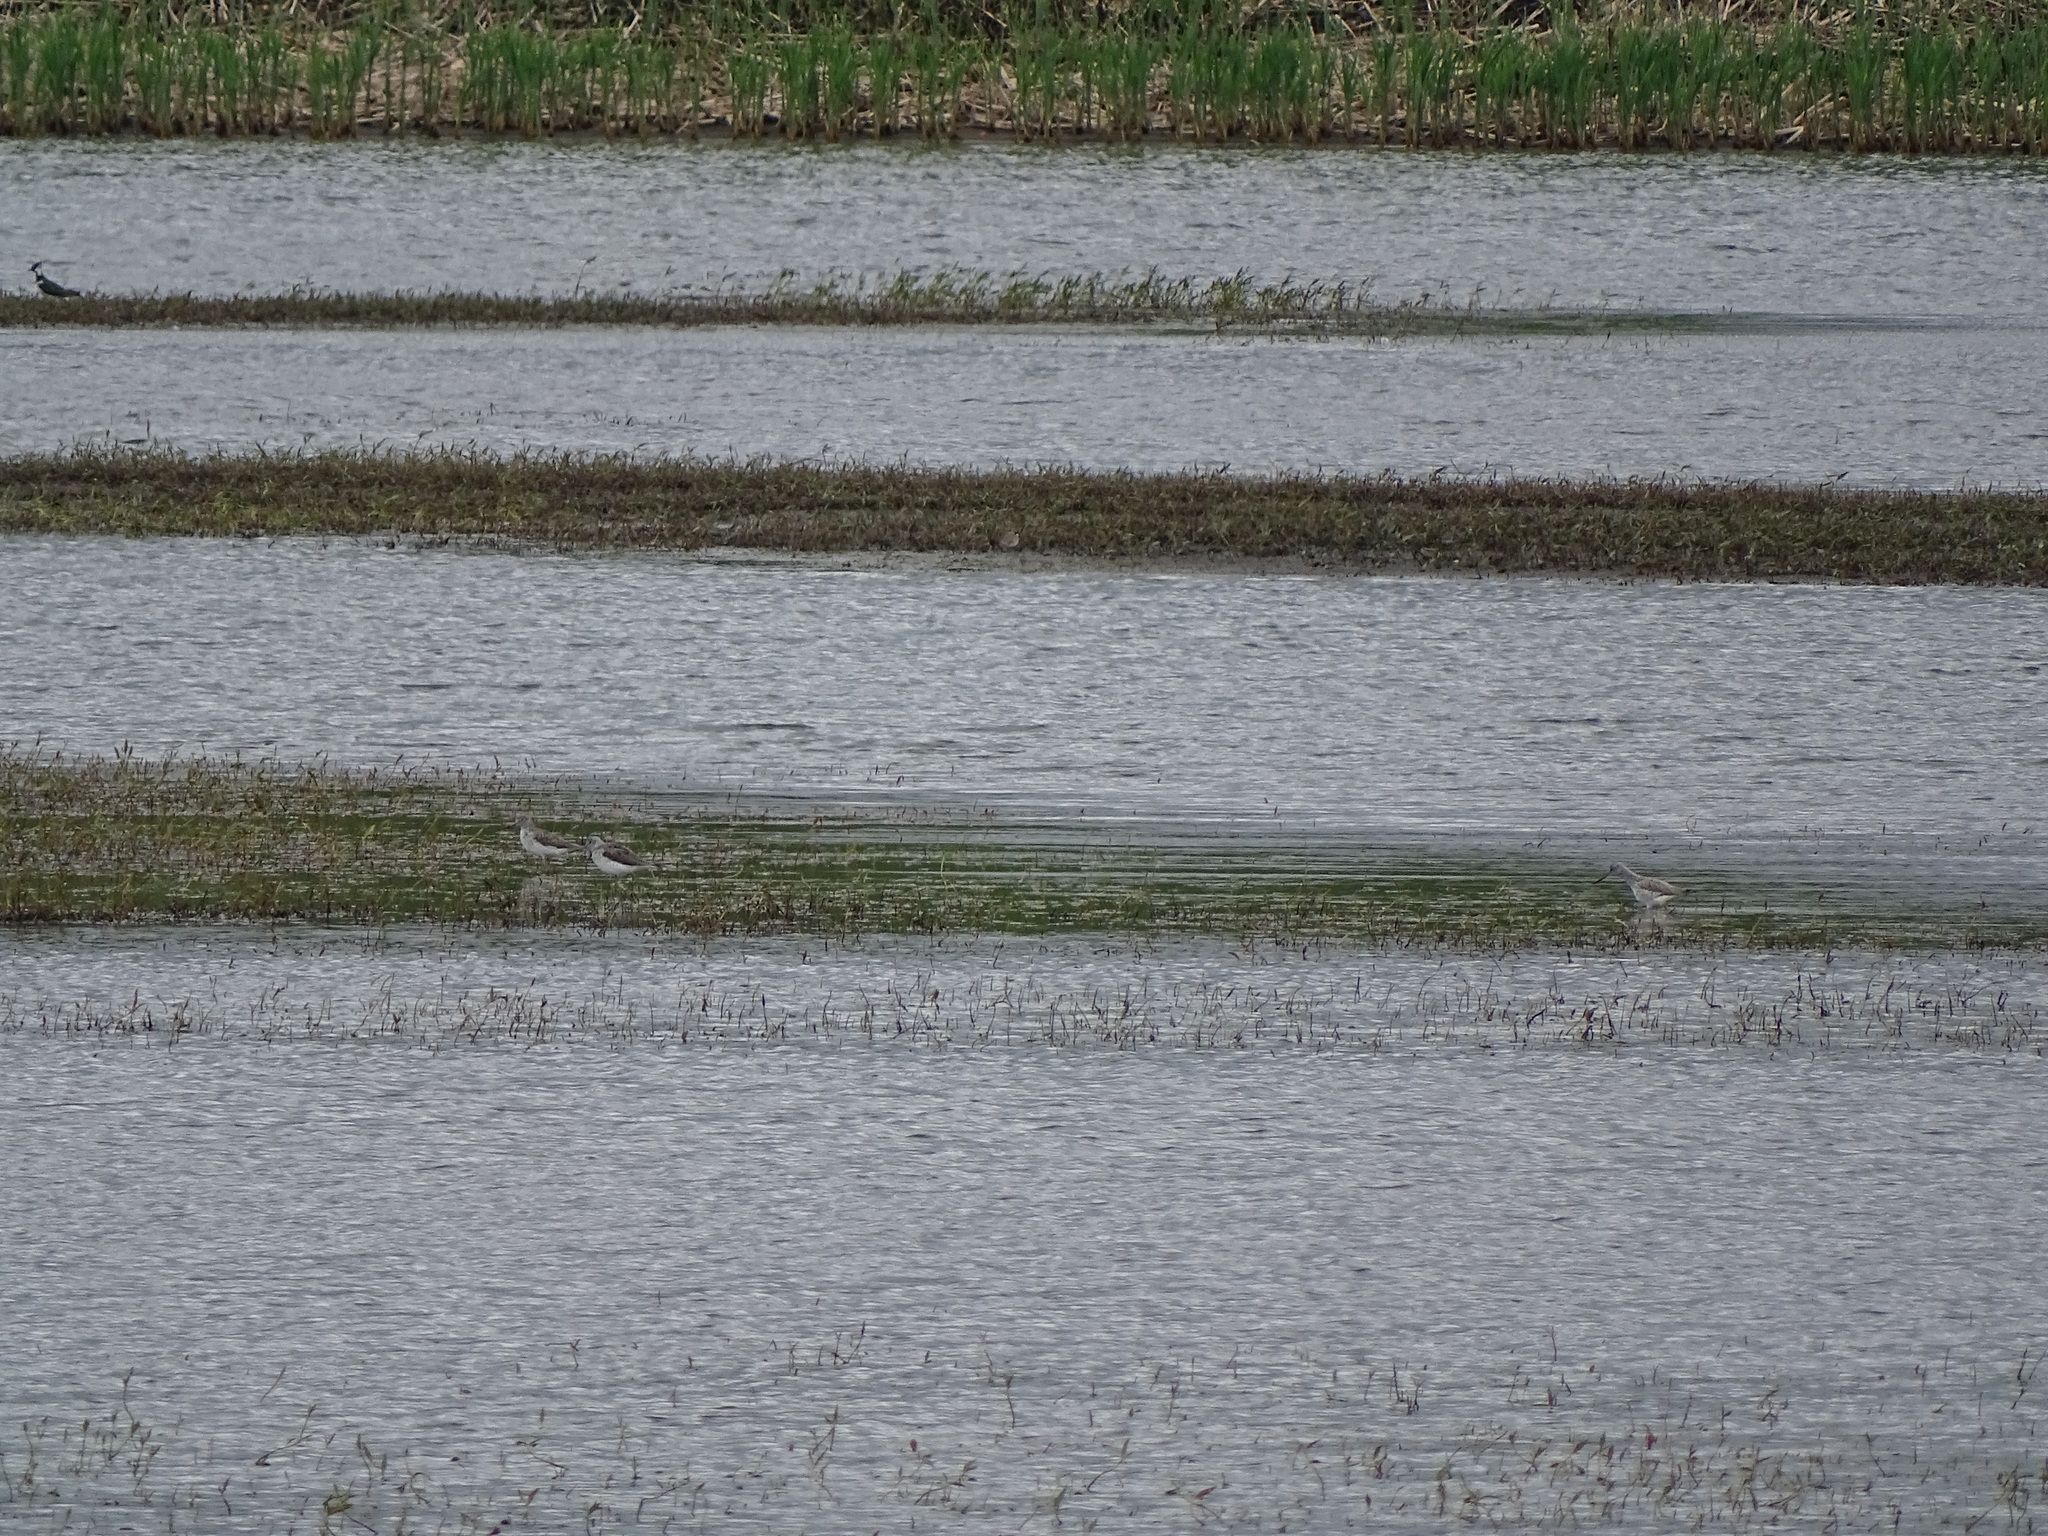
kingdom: Animalia
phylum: Chordata
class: Aves
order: Charadriiformes
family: Scolopacidae
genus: Tringa
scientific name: Tringa glareola
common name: Wood sandpiper
